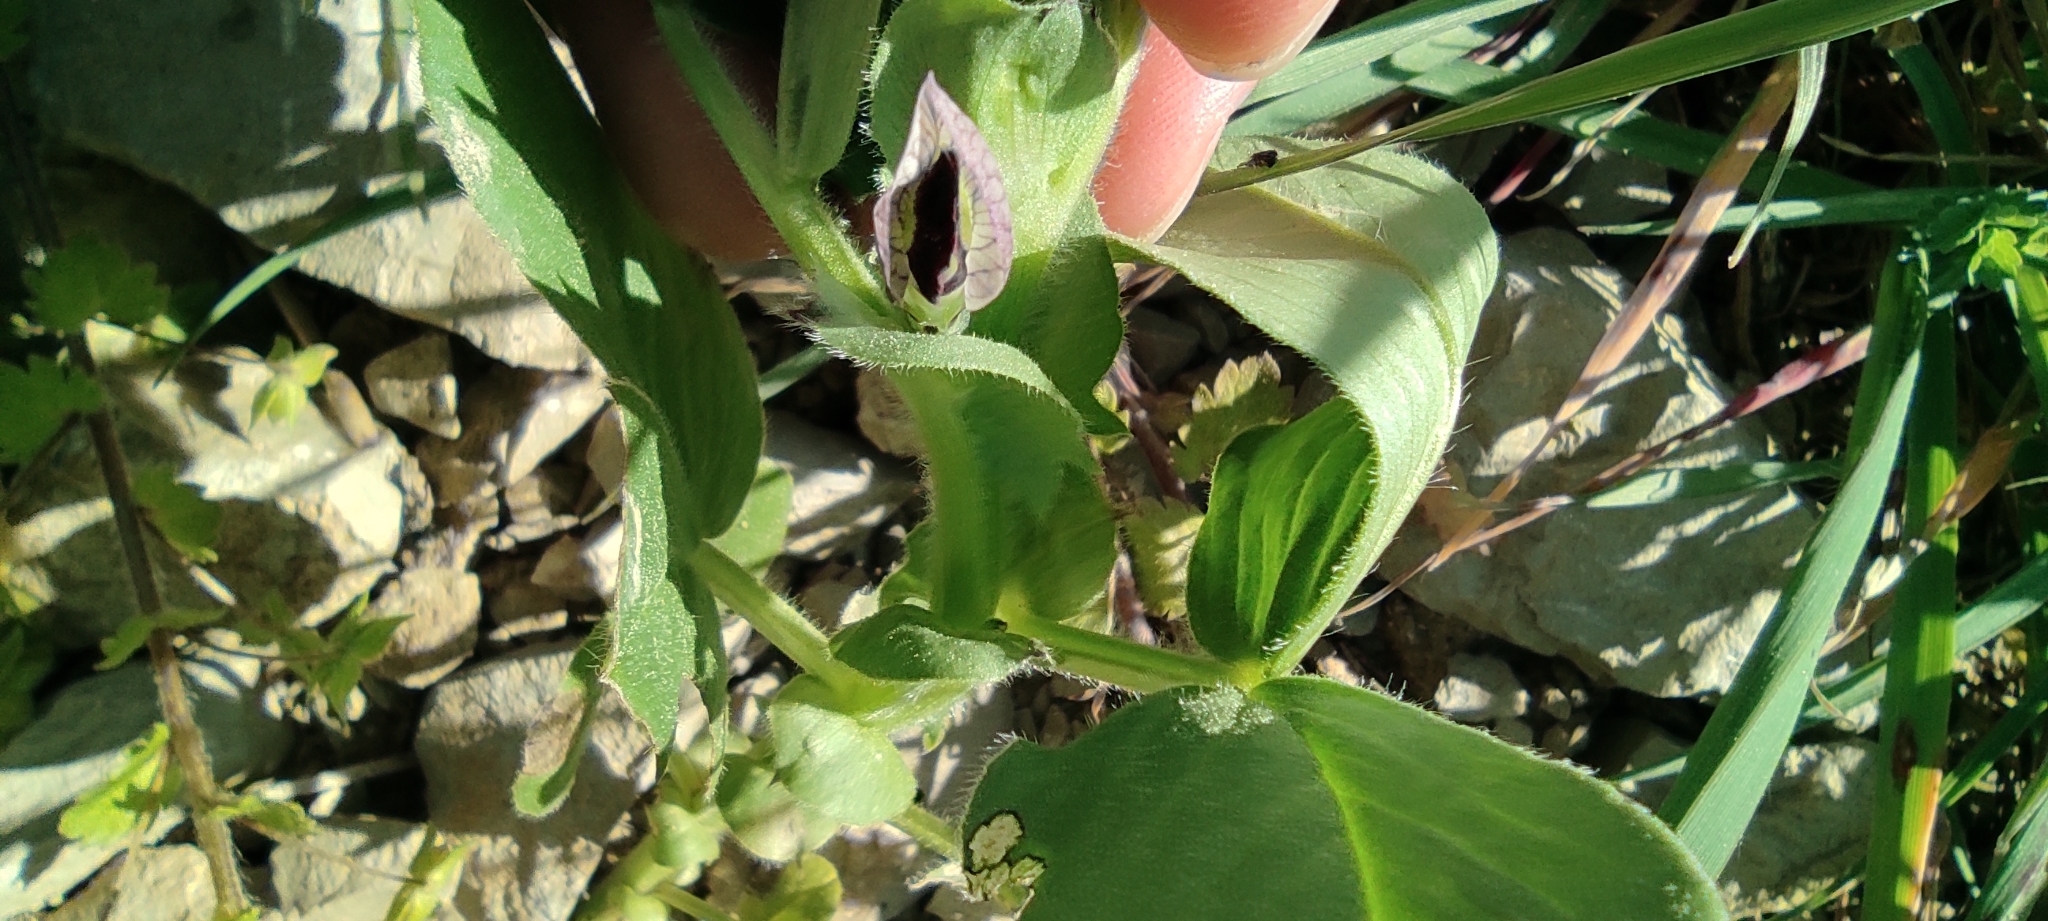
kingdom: Plantae
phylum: Tracheophyta
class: Magnoliopsida
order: Fabales
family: Fabaceae
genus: Vicia
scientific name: Vicia faba
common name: Broad bean
